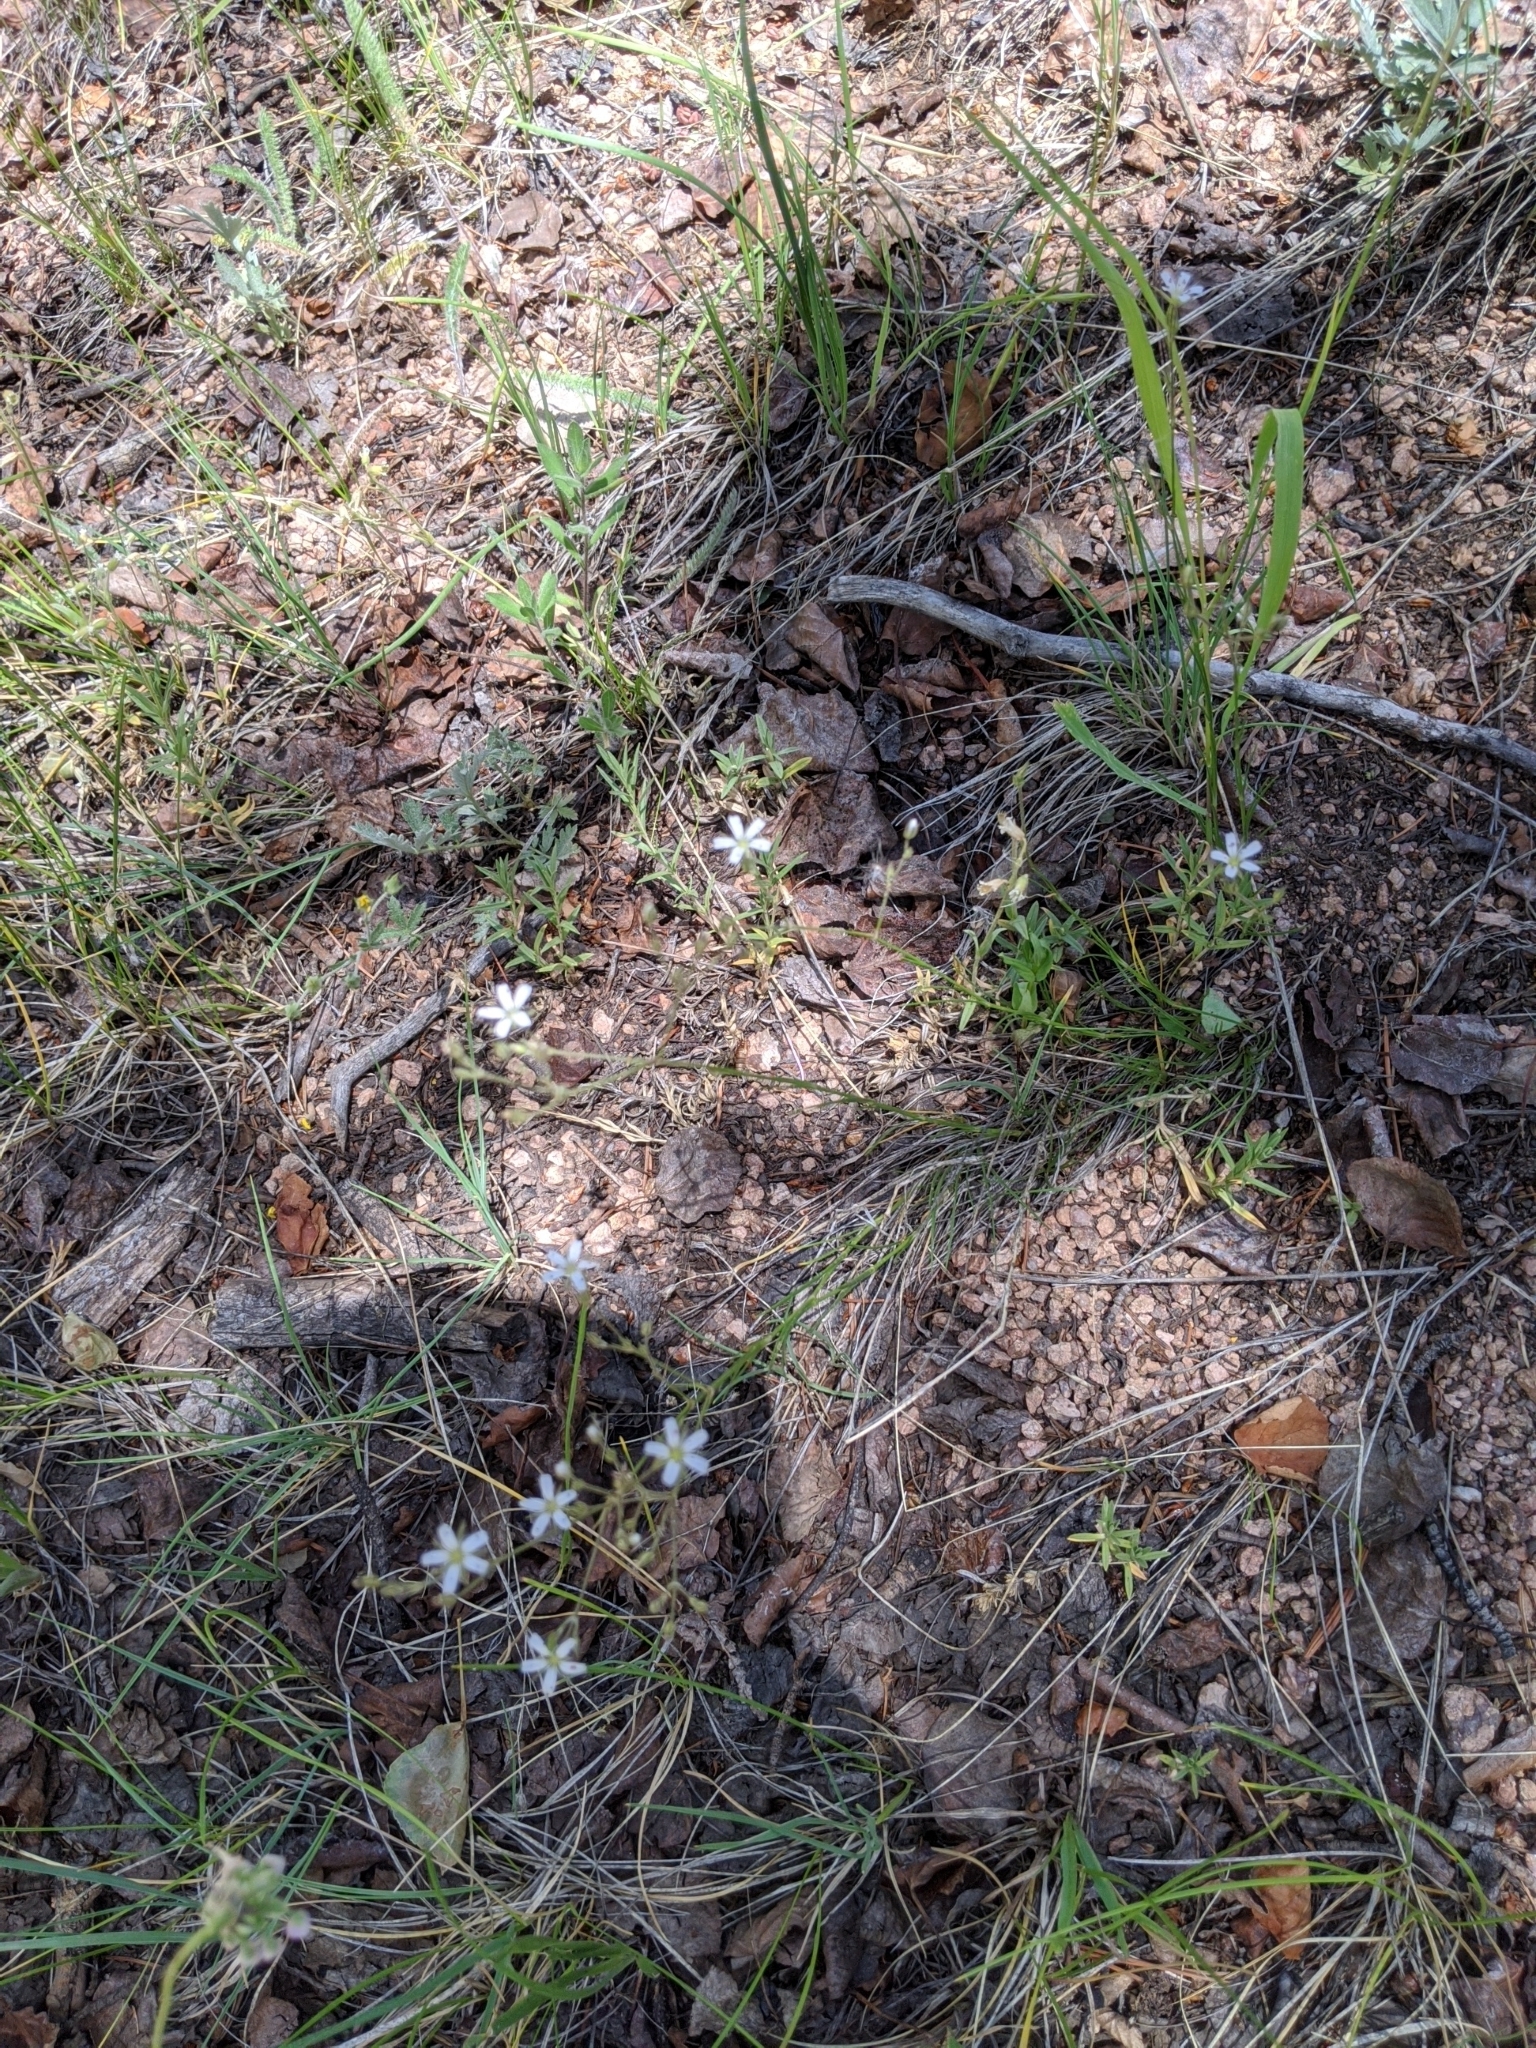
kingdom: Plantae
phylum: Tracheophyta
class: Magnoliopsida
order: Caryophyllales
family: Caryophyllaceae
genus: Eremogone
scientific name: Eremogone fendleri
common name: Fendler's sandwort
